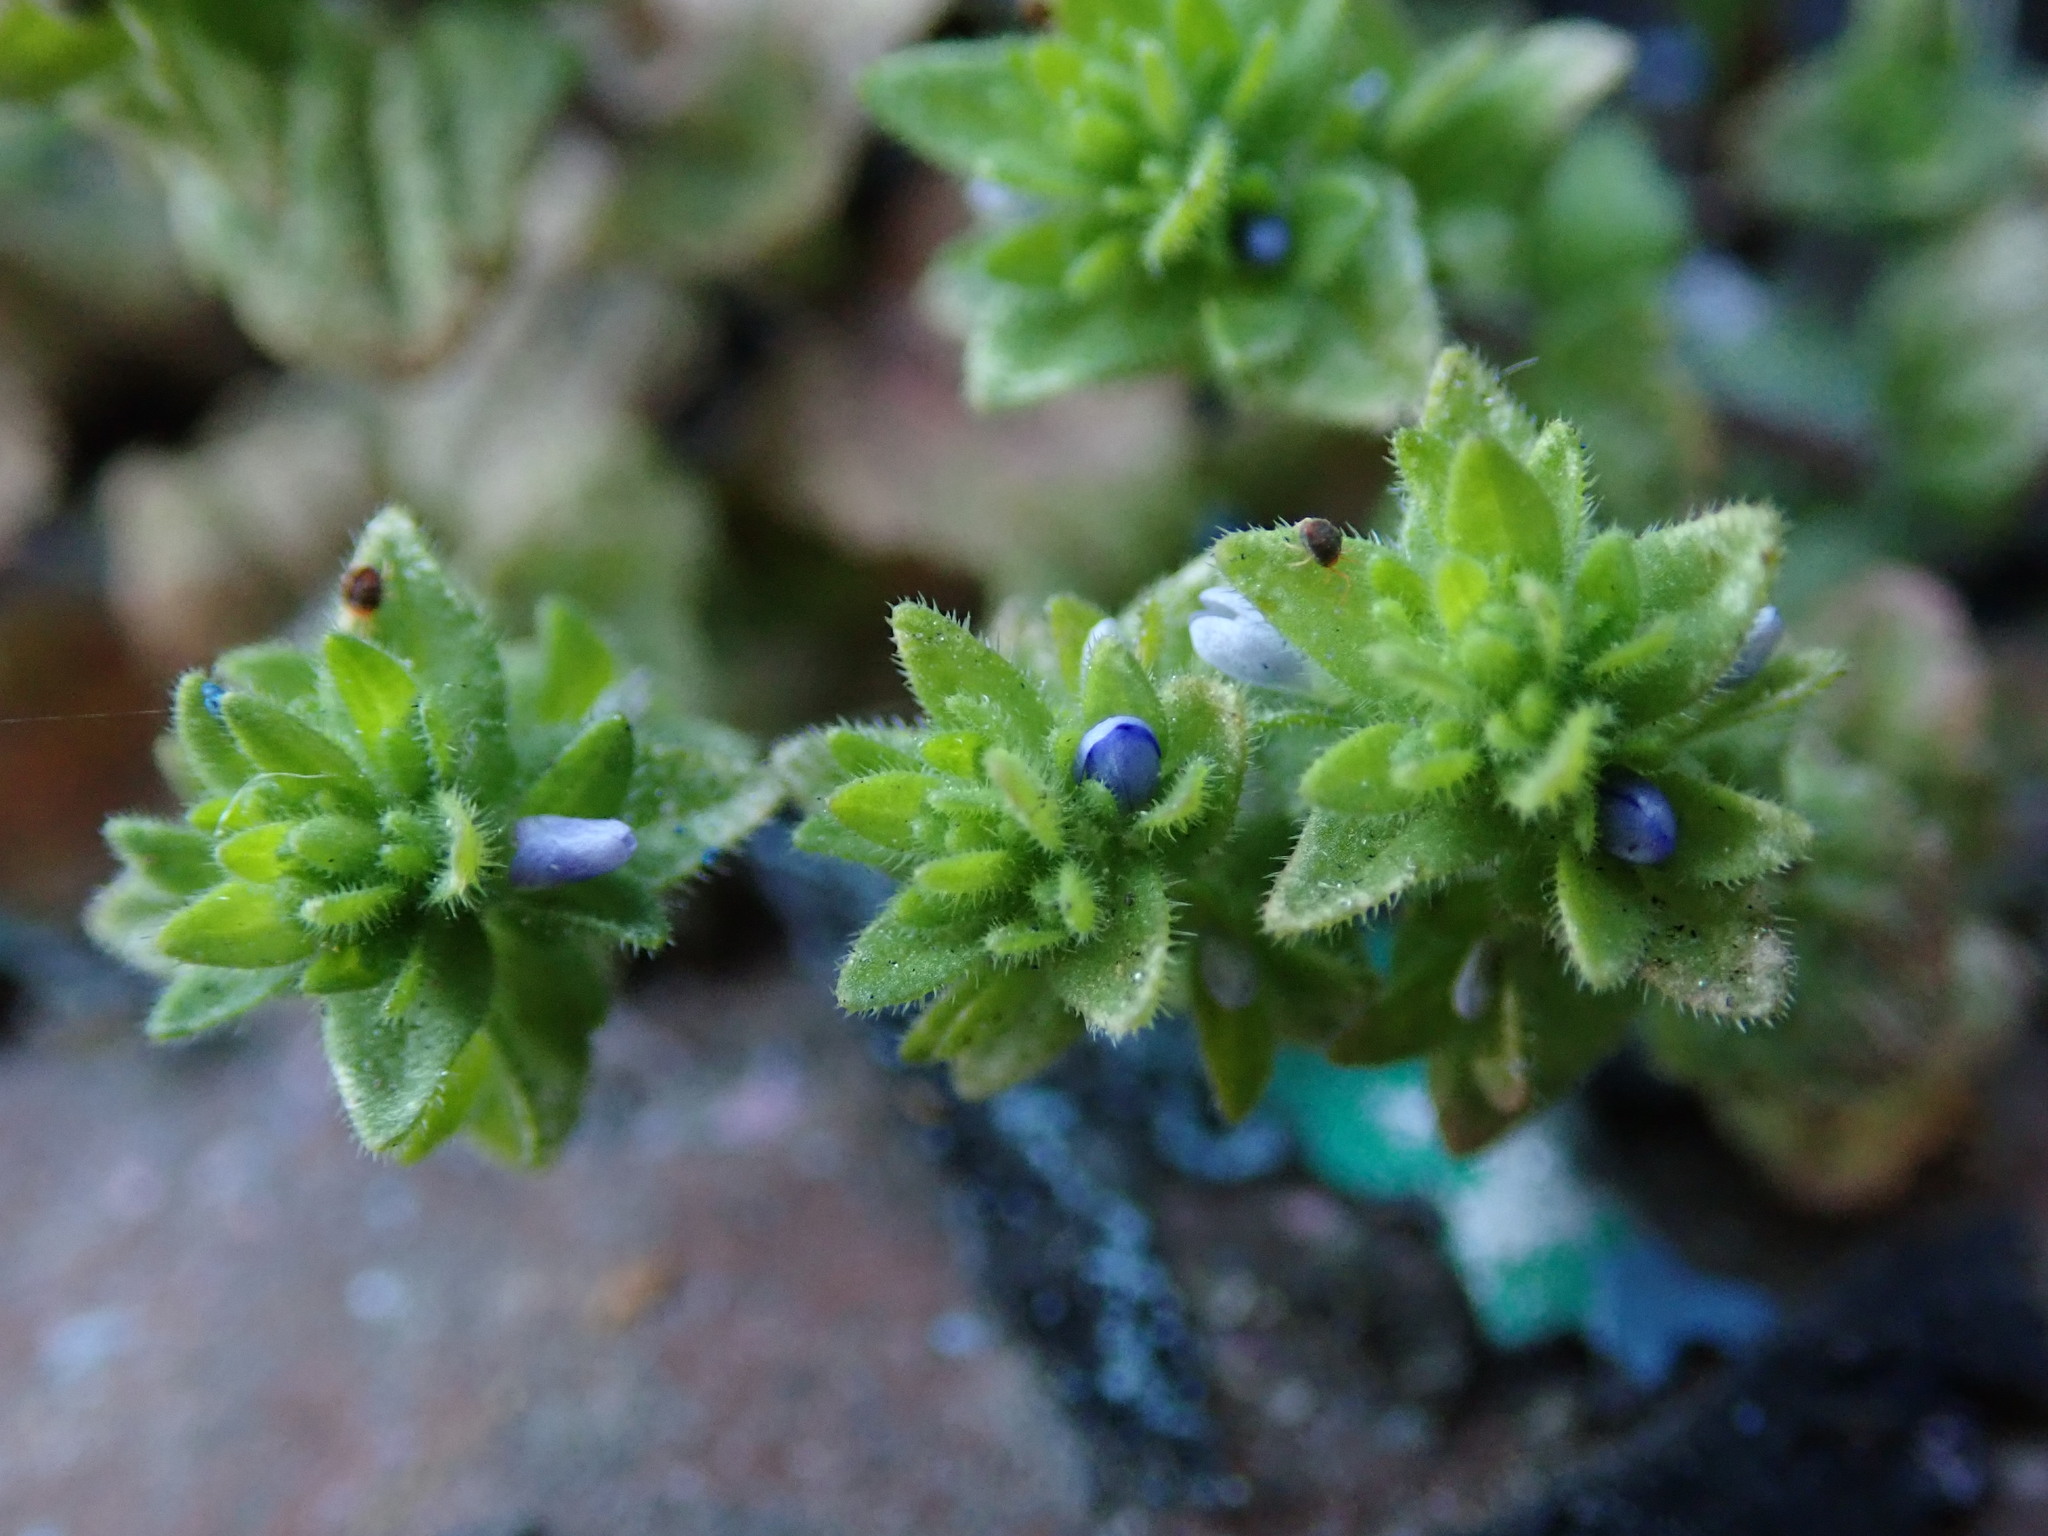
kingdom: Plantae
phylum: Tracheophyta
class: Magnoliopsida
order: Lamiales
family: Plantaginaceae
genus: Veronica
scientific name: Veronica arvensis
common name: Corn speedwell
